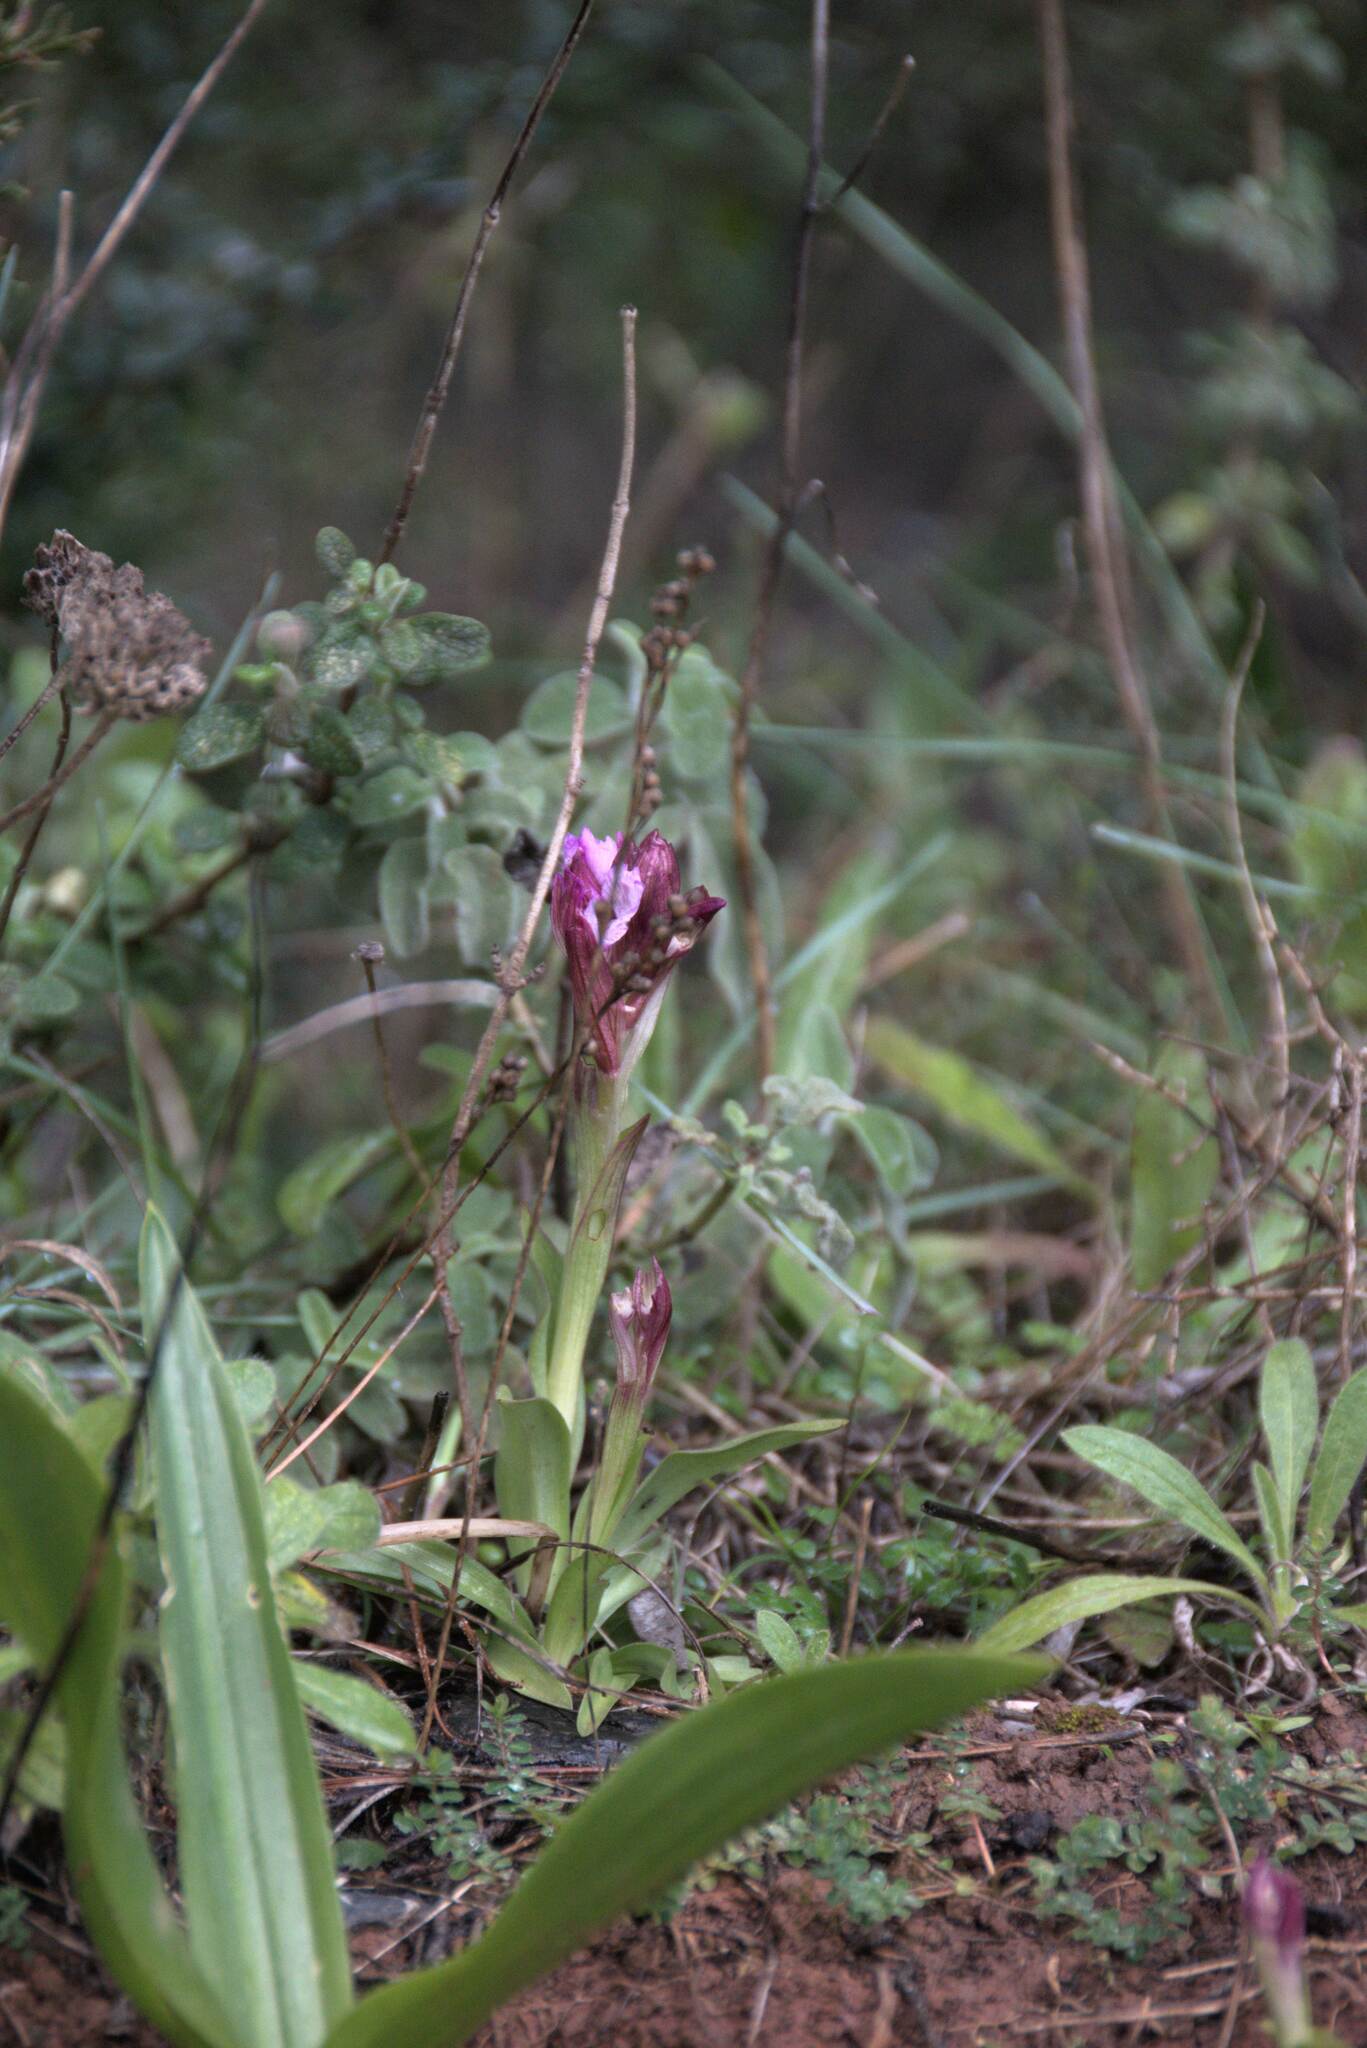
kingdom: Plantae
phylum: Tracheophyta
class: Liliopsida
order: Asparagales
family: Orchidaceae
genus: Anacamptis
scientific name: Anacamptis papilionacea
